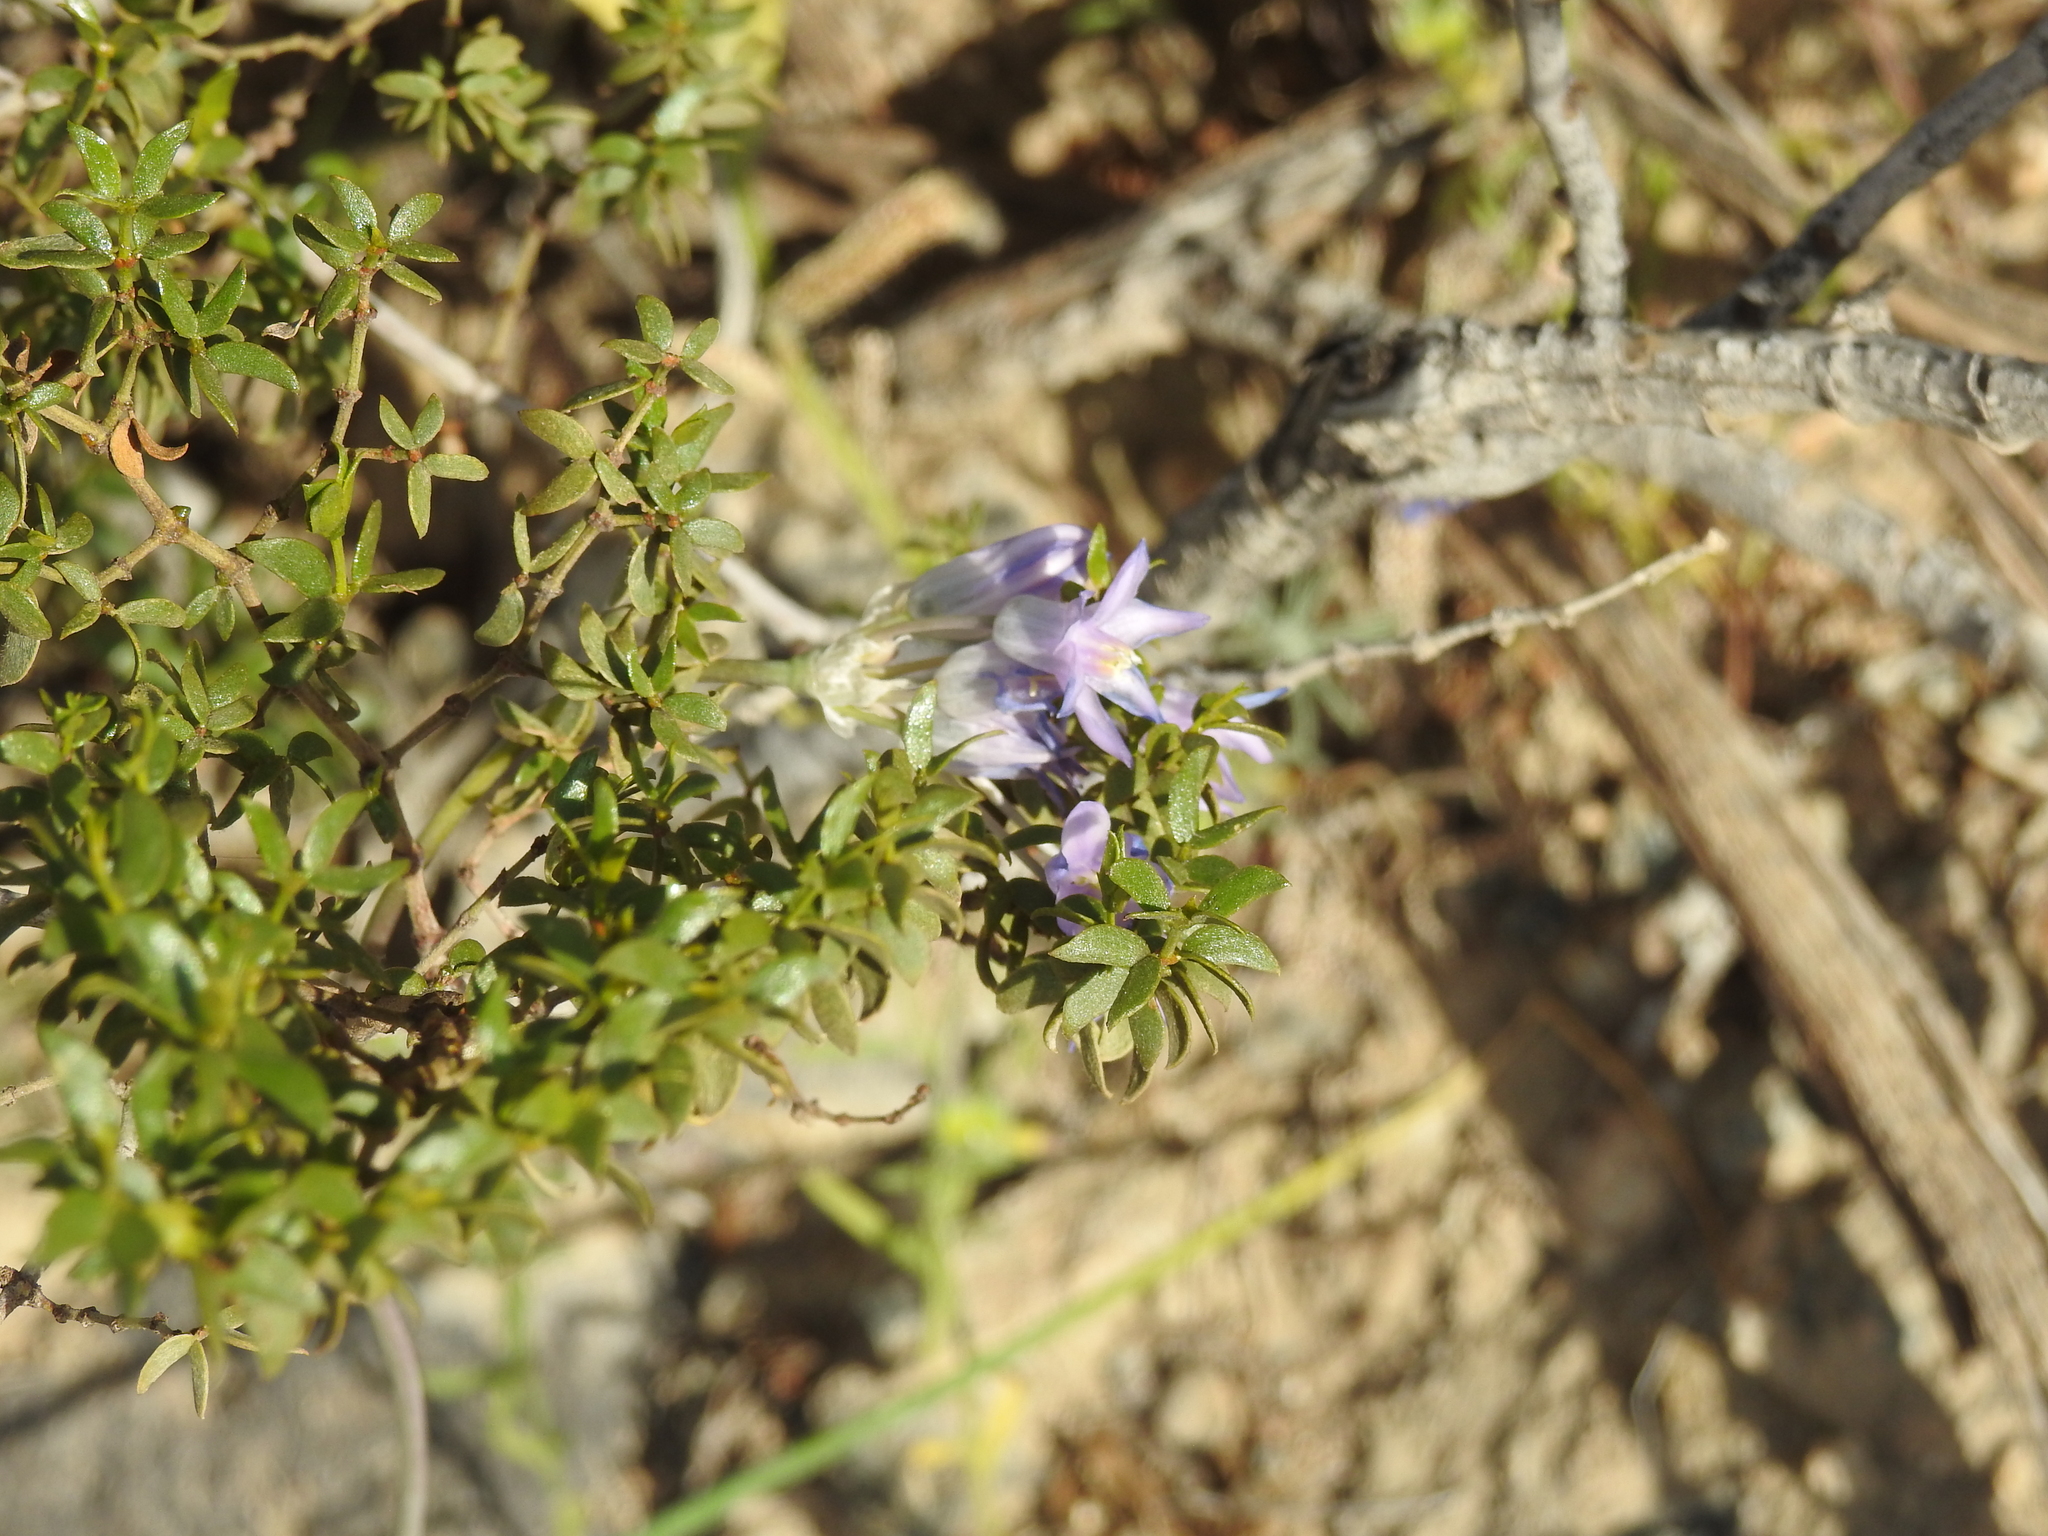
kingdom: Plantae
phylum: Tracheophyta
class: Liliopsida
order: Asparagales
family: Asparagaceae
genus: Dipterostemon
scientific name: Dipterostemon capitatus
